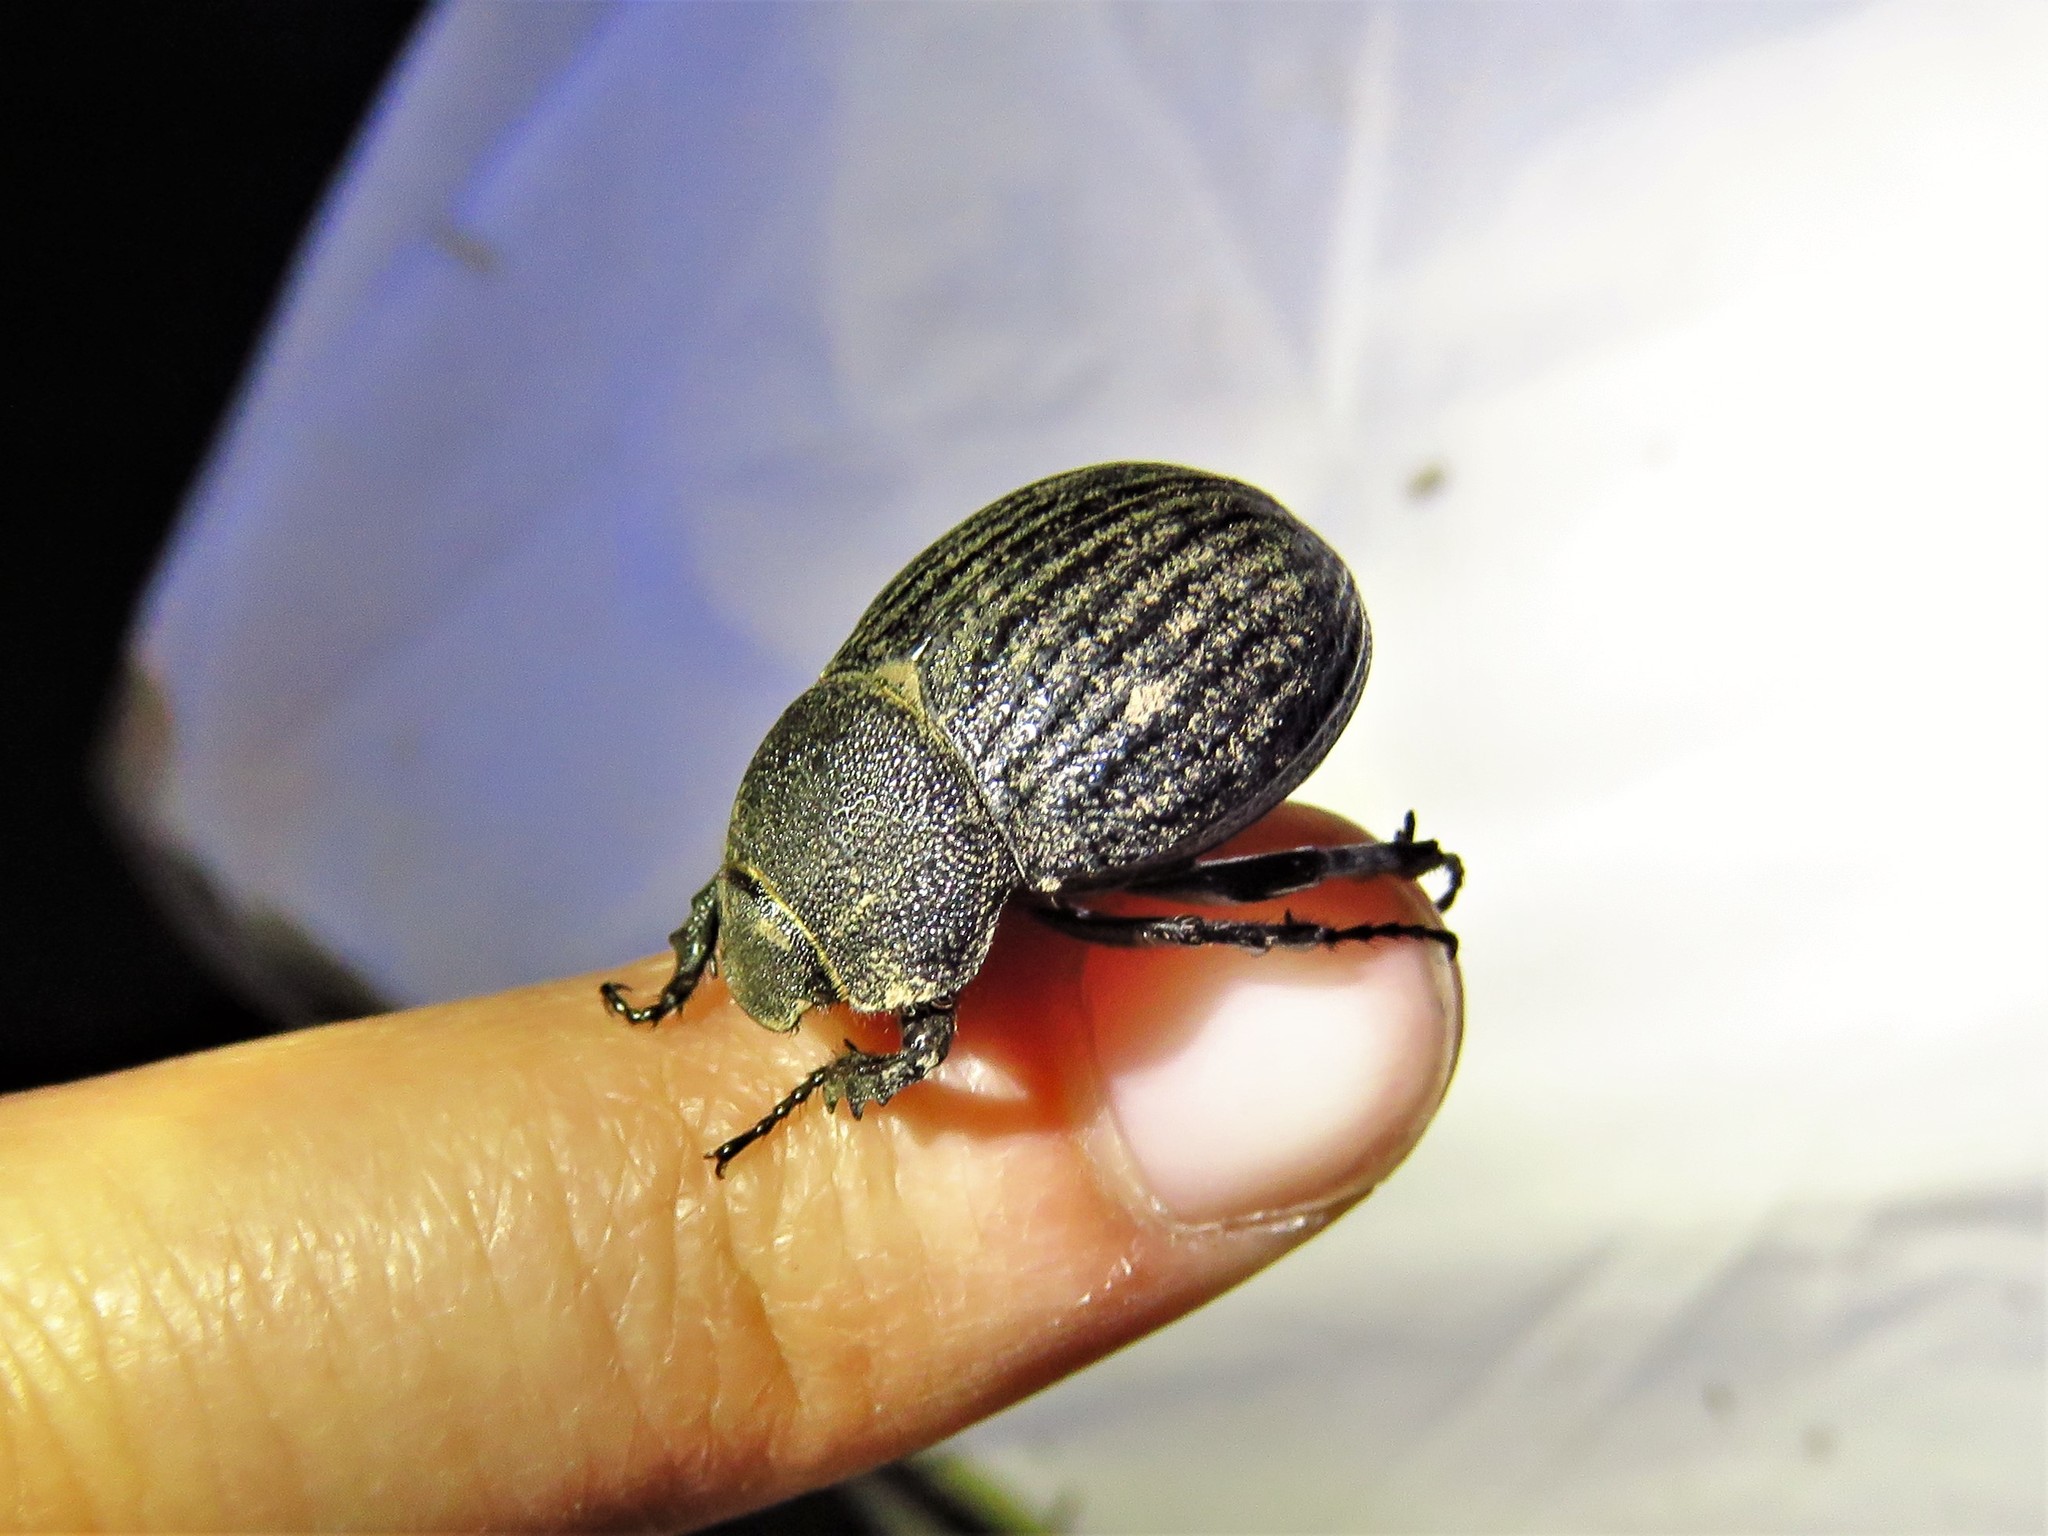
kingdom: Animalia
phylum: Arthropoda
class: Insecta
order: Coleoptera
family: Scarabaeidae
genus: Phyllophaga
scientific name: Phyllophaga cribrosa
